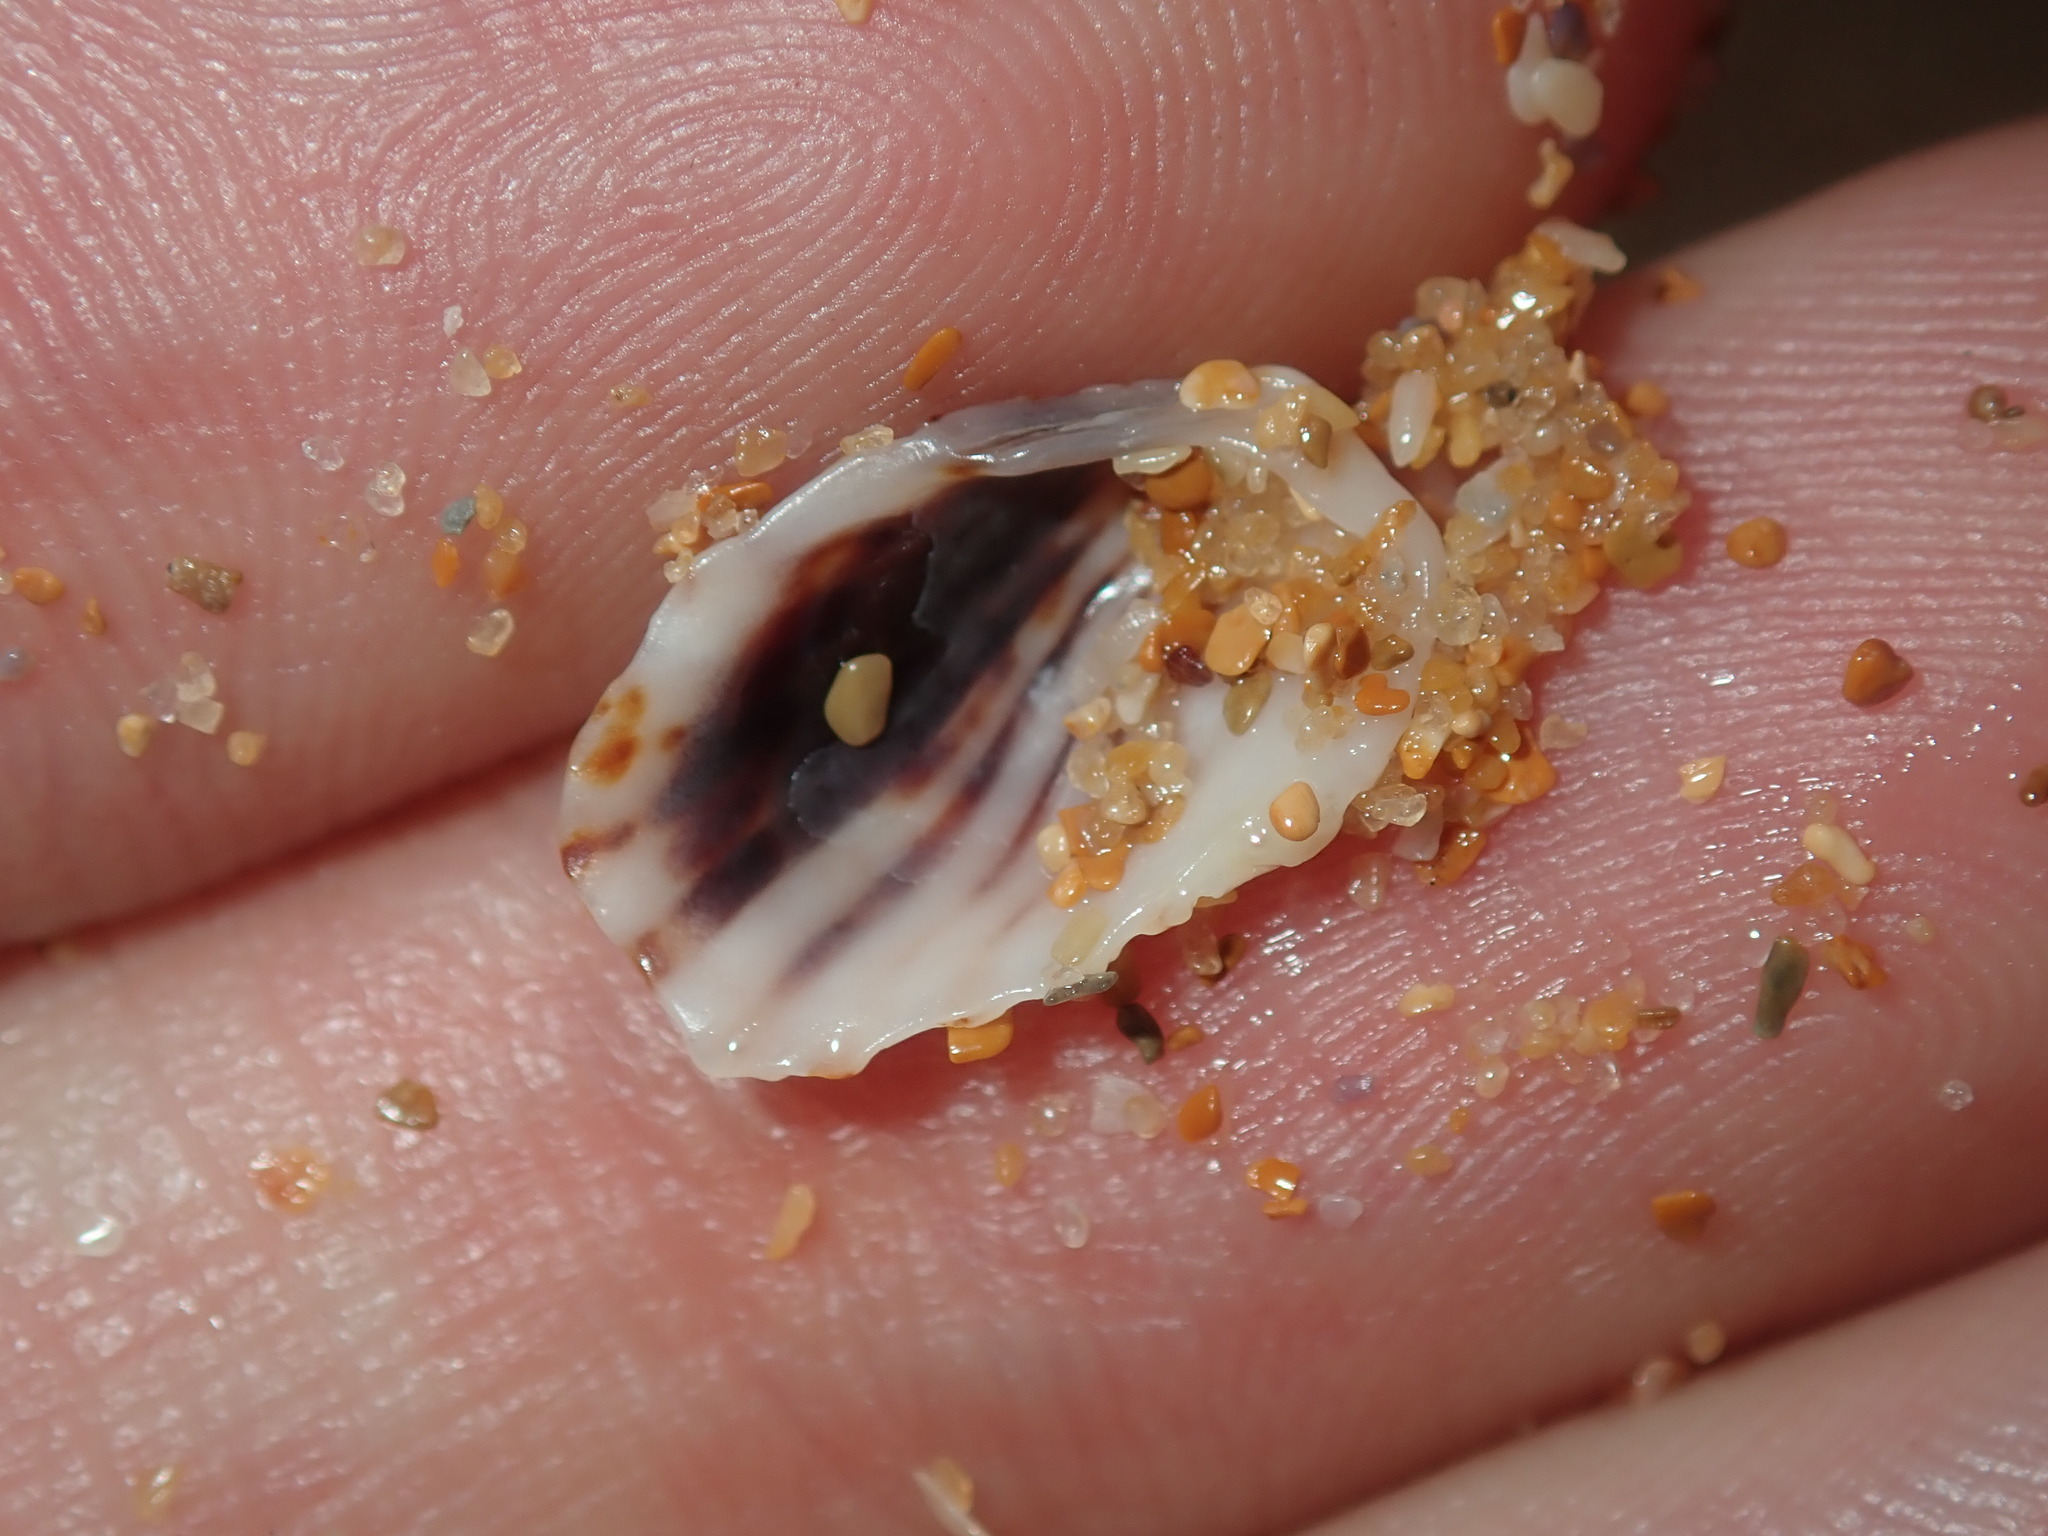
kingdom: Animalia
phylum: Mollusca
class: Bivalvia
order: Carditida
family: Carditidae
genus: Cardita
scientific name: Cardita aviculina
